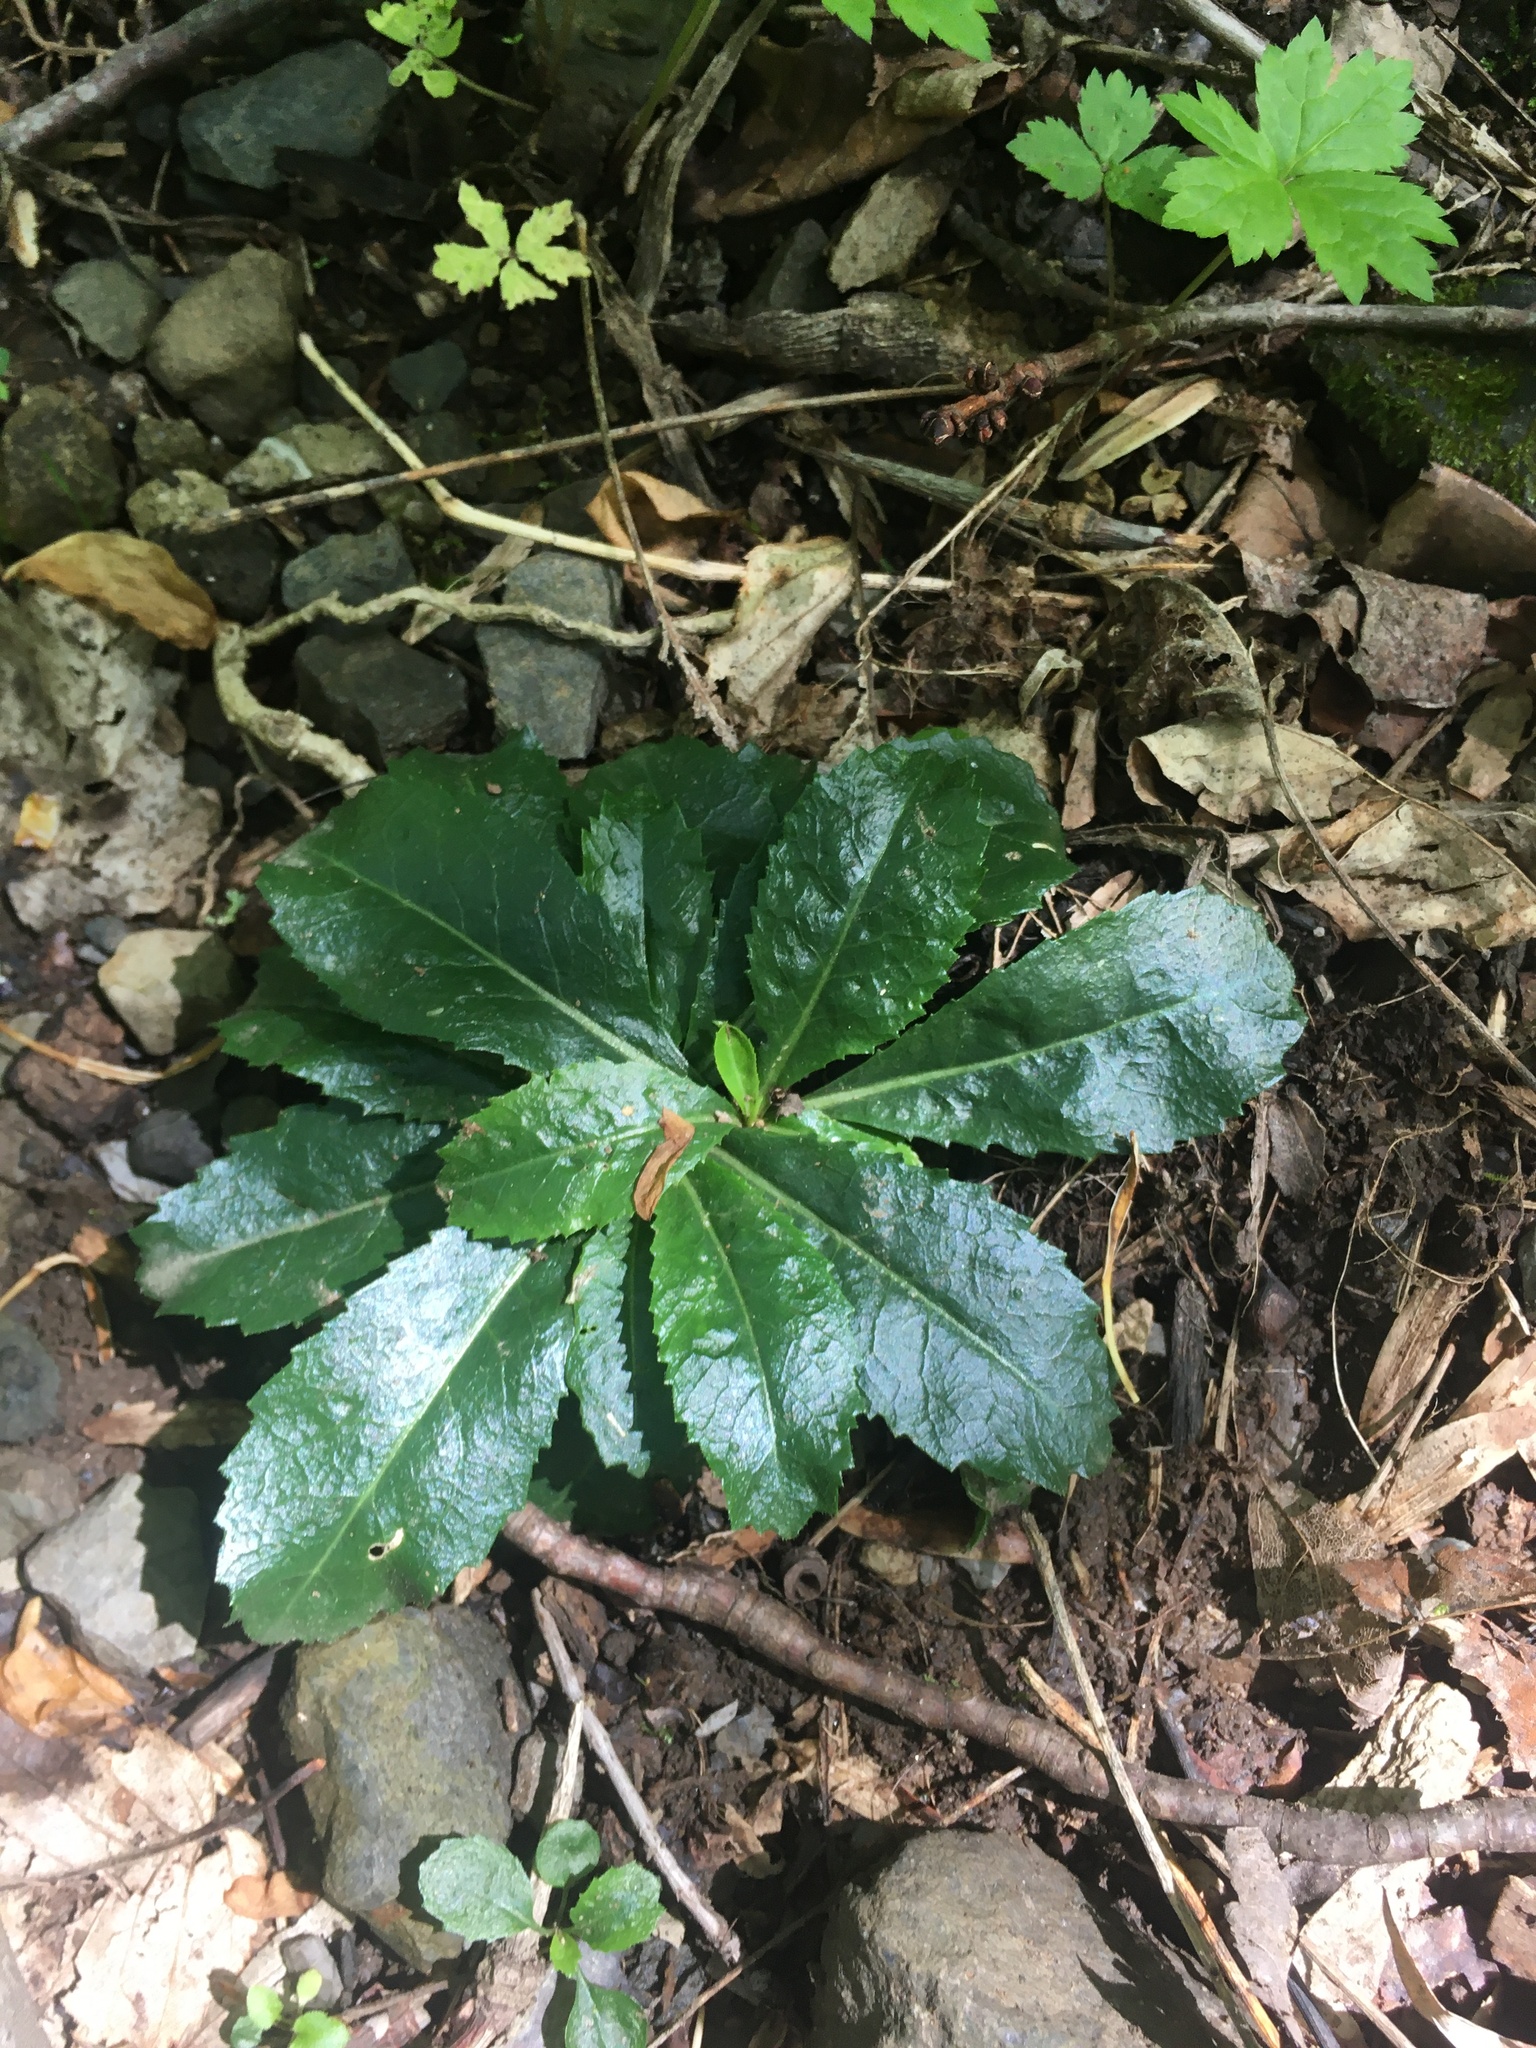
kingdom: Plantae
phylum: Tracheophyta
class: Magnoliopsida
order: Saxifragales
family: Saxifragaceae
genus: Micranthes
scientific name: Micranthes micranthidifolia
